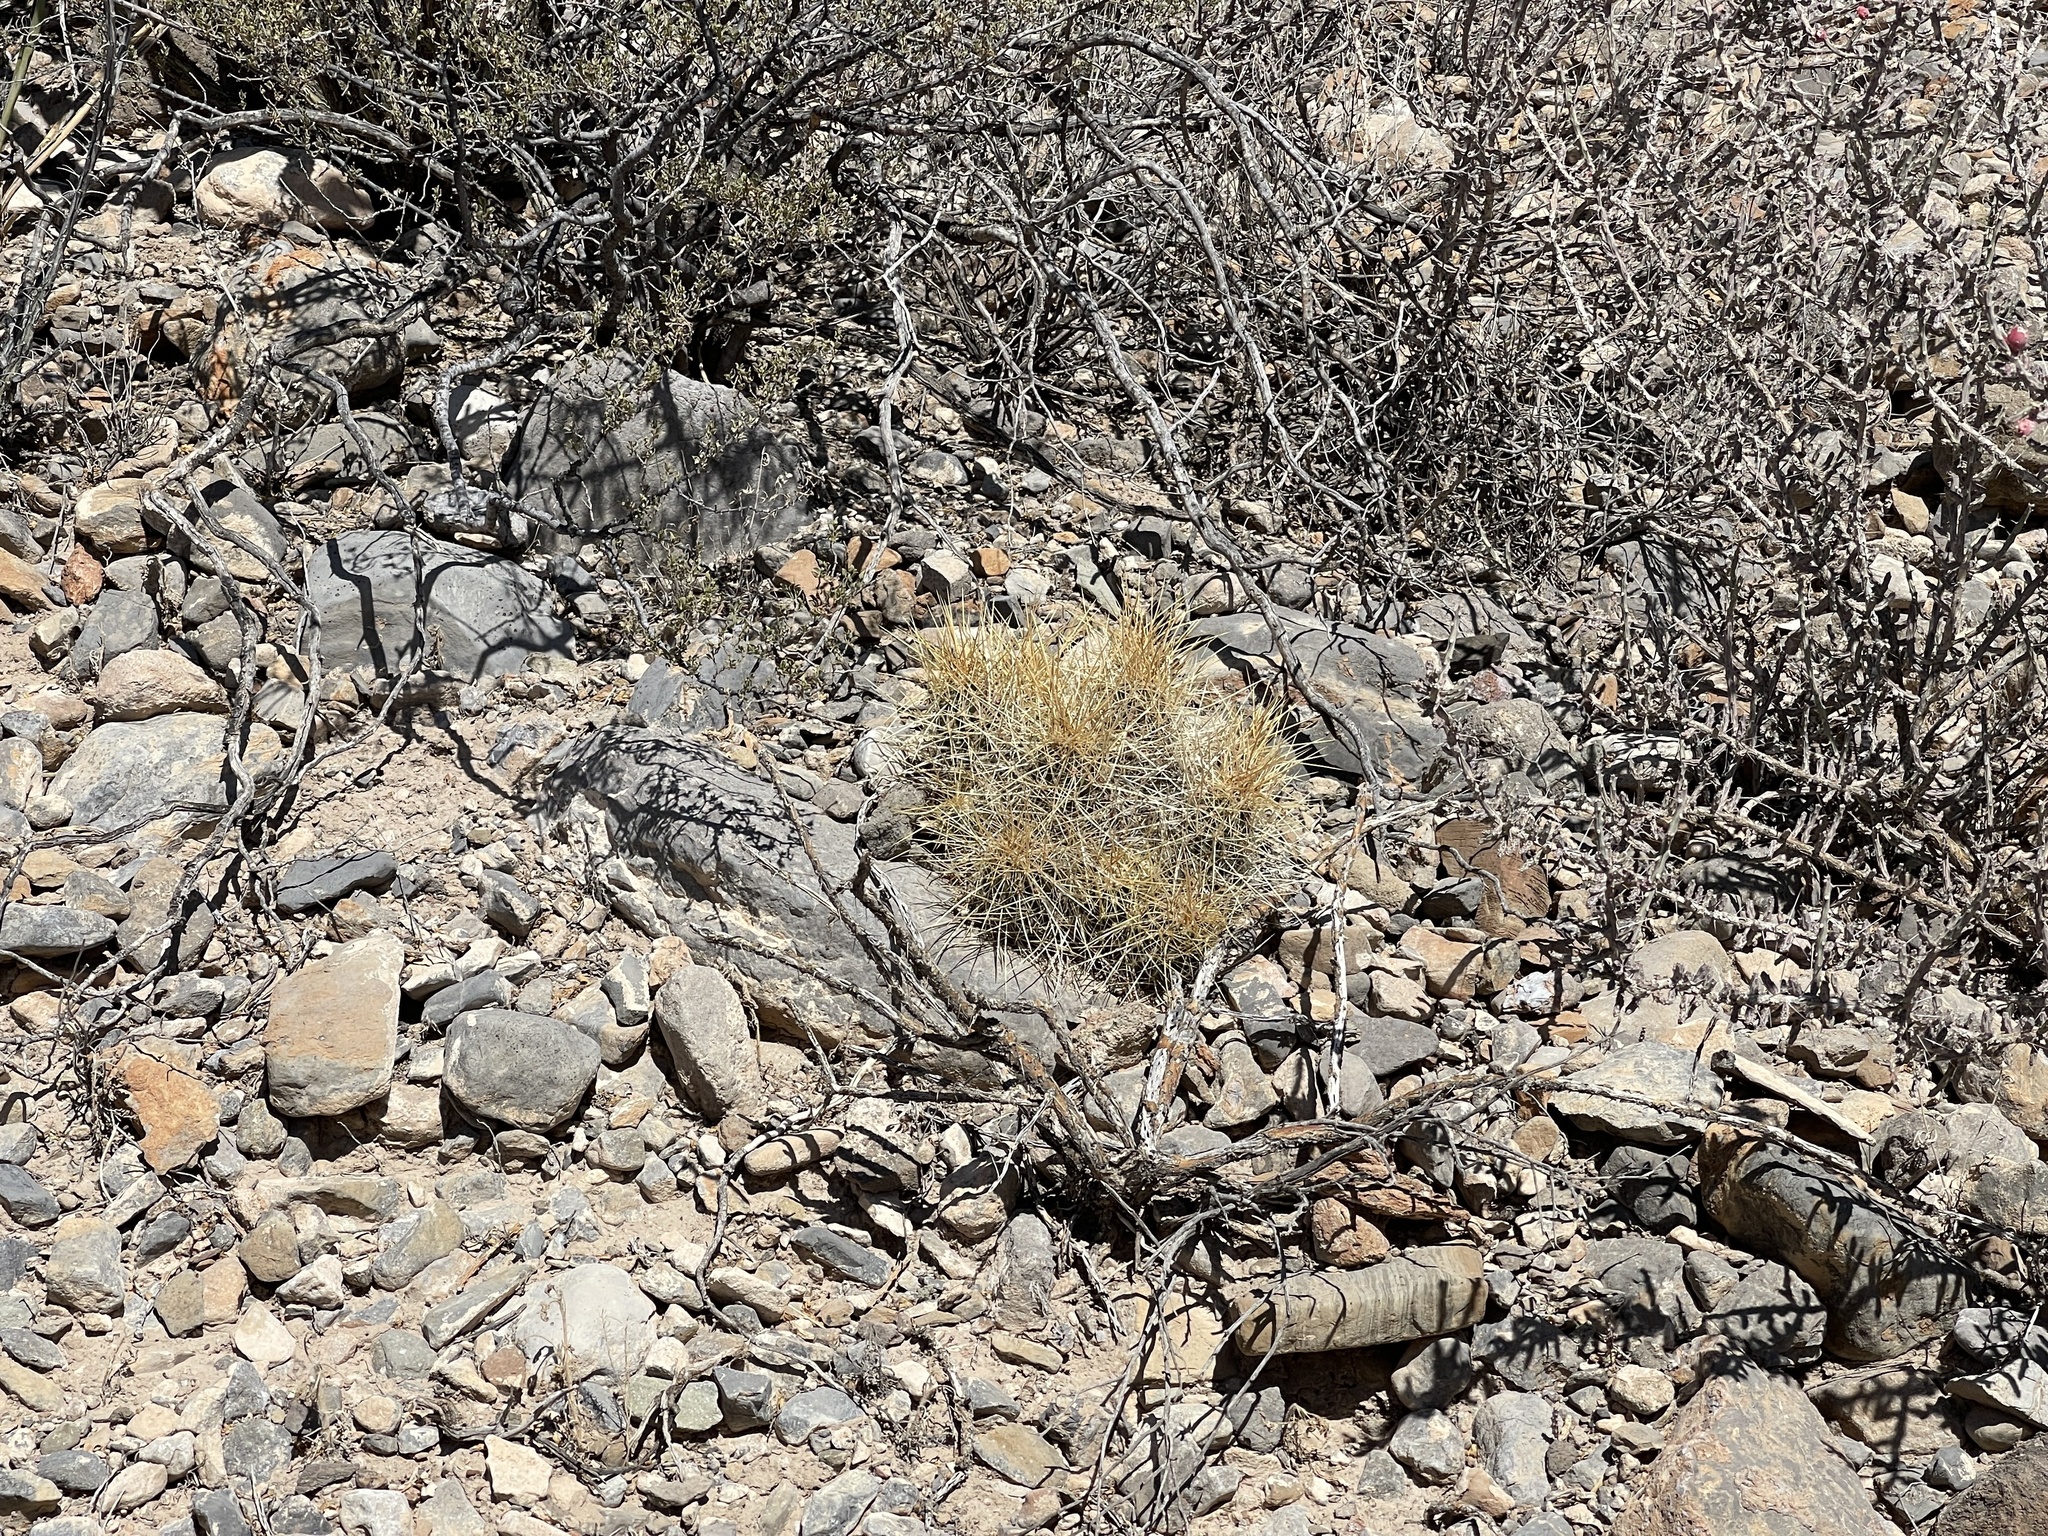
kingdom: Plantae
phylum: Tracheophyta
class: Magnoliopsida
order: Caryophyllales
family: Cactaceae
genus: Echinocereus
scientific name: Echinocereus stramineus
